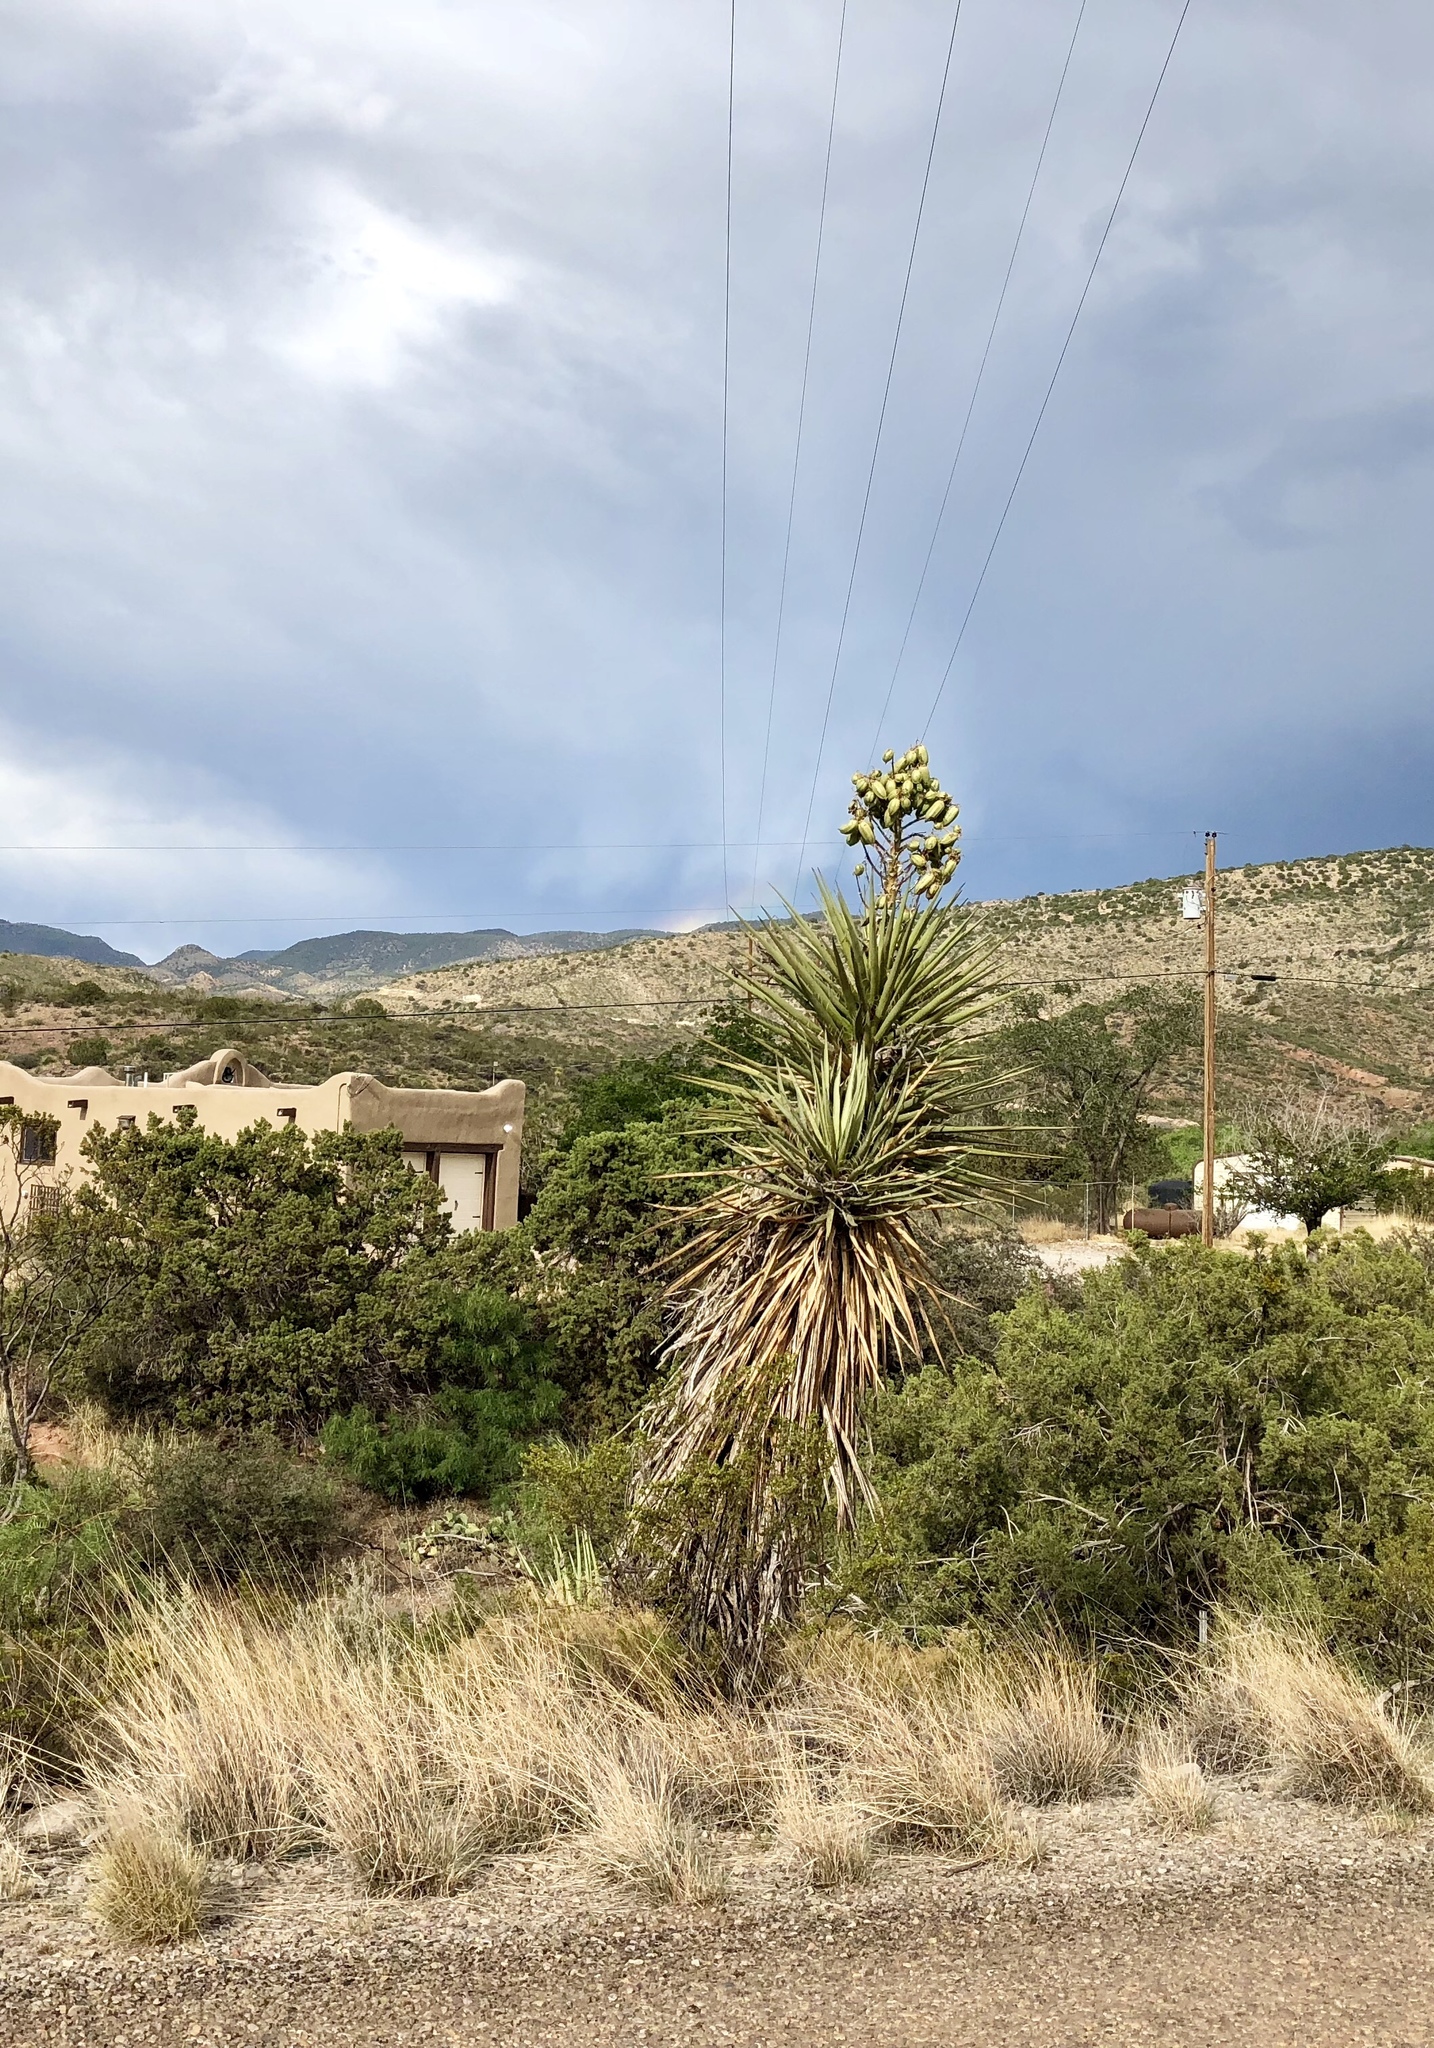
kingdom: Plantae
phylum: Tracheophyta
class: Liliopsida
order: Asparagales
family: Asparagaceae
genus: Yucca
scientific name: Yucca treculiana
